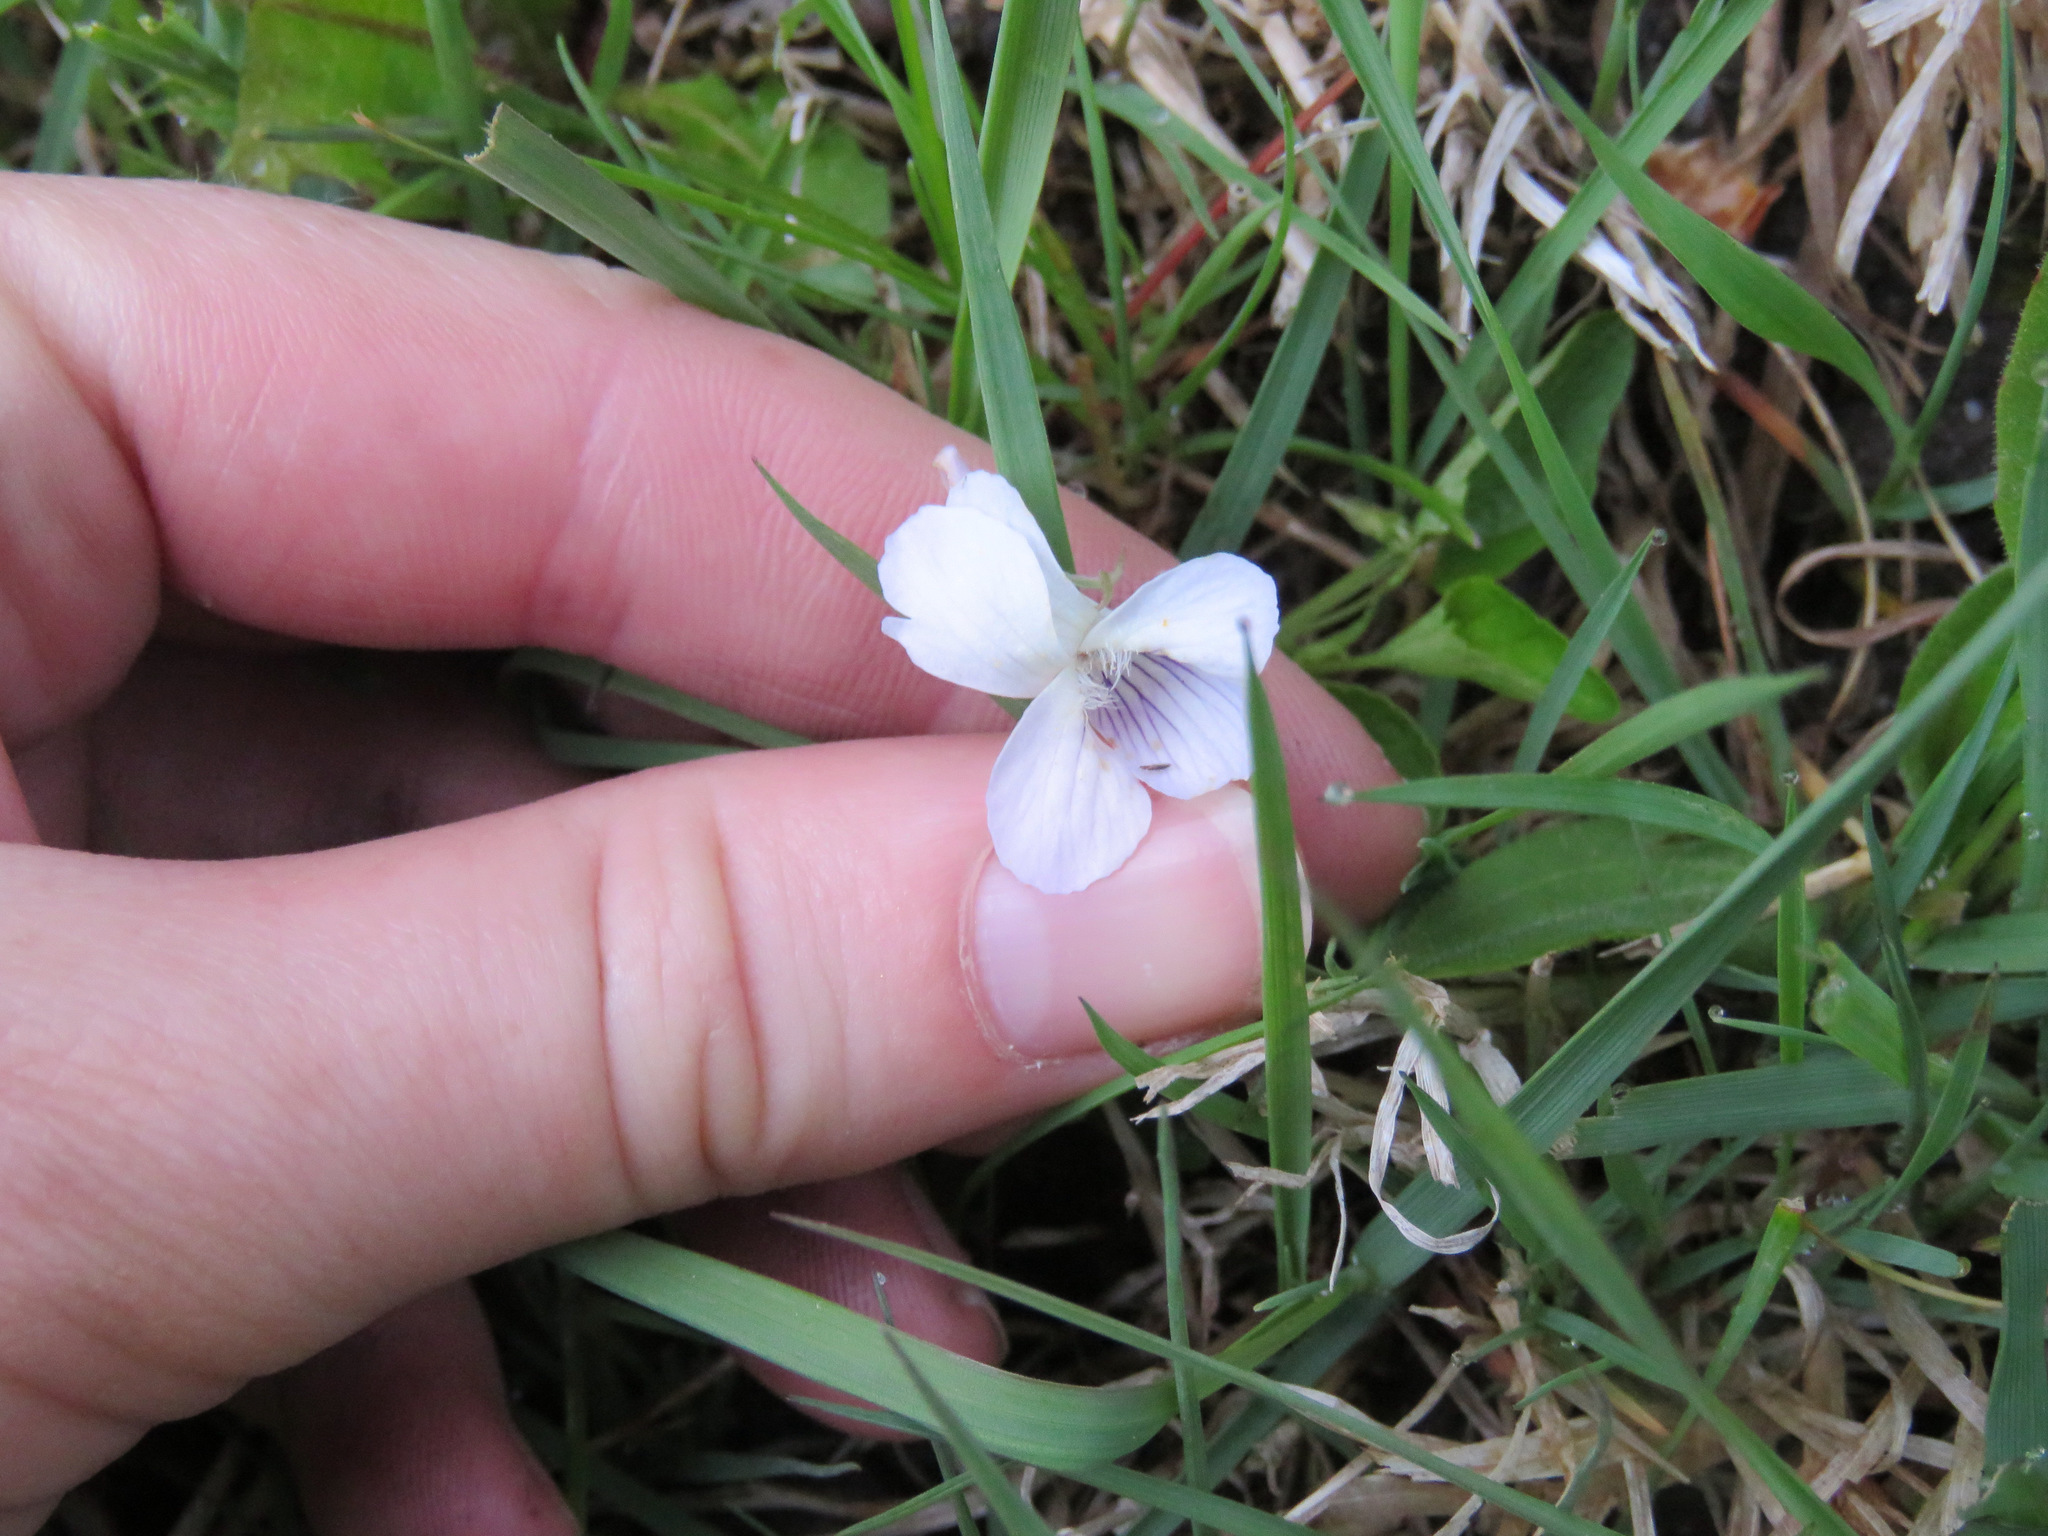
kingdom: Plantae
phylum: Tracheophyta
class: Magnoliopsida
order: Malpighiales
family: Violaceae
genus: Viola
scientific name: Viola adunca
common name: Sand violet
